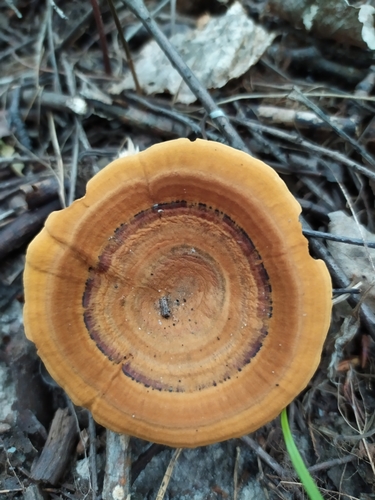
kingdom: Fungi
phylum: Basidiomycota
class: Agaricomycetes
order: Hymenochaetales
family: Hymenochaetaceae
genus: Coltricia
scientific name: Coltricia perennis
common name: Tiger's eye
